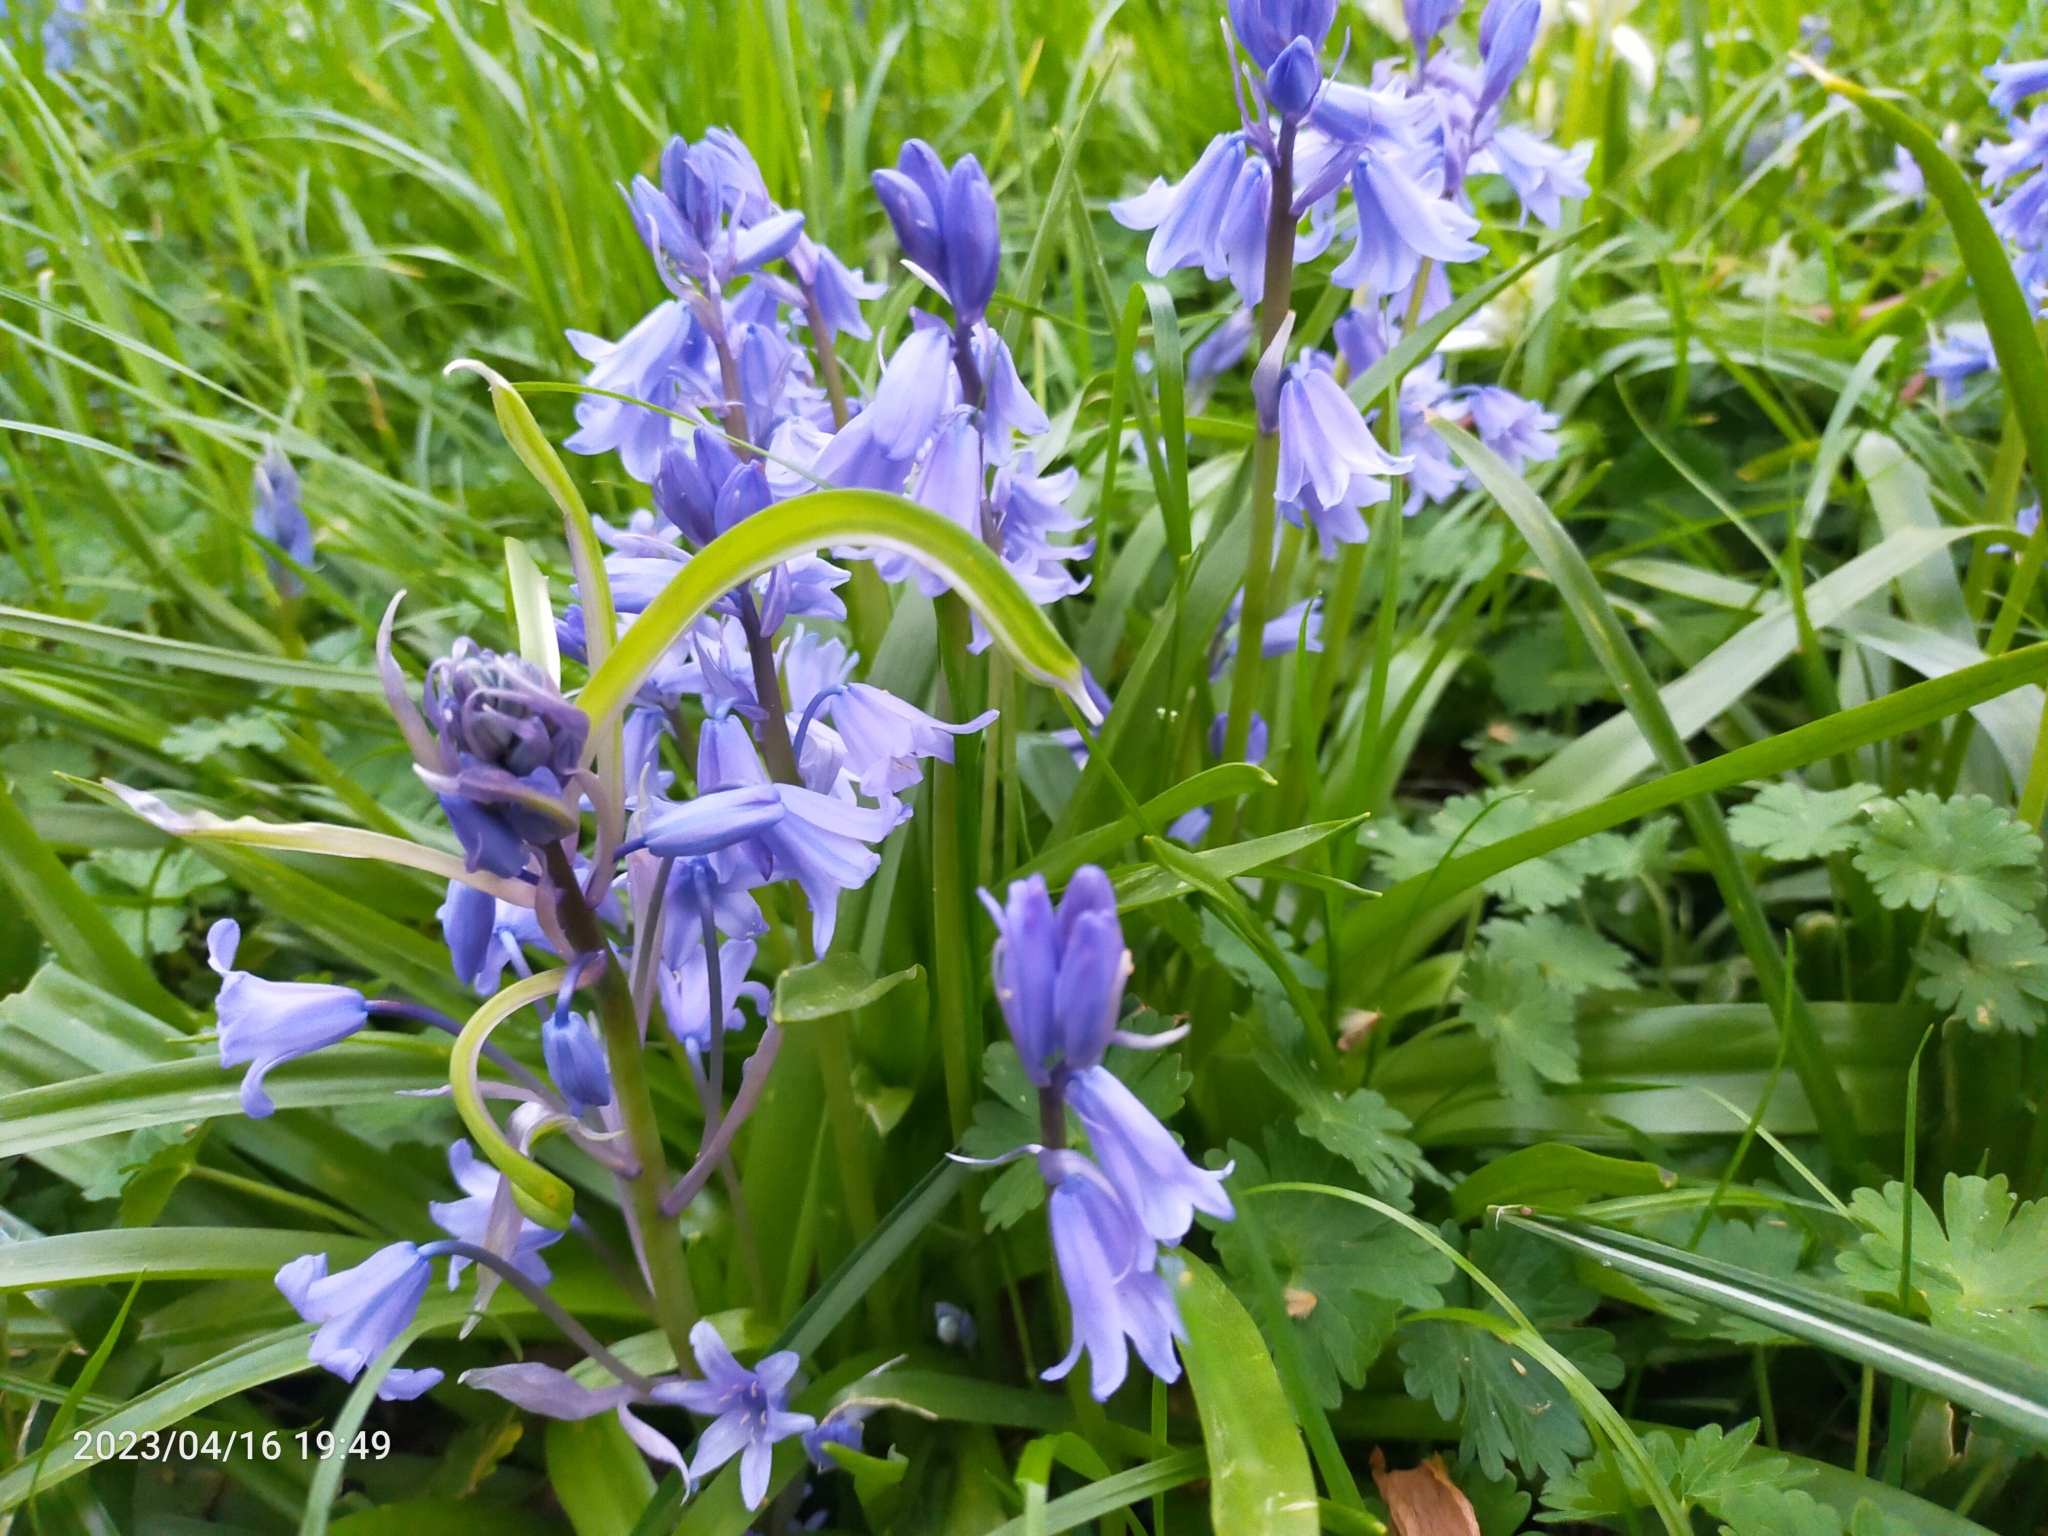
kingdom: Plantae
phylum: Tracheophyta
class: Liliopsida
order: Asparagales
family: Asparagaceae
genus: Hyacinthoides
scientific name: Hyacinthoides hispanica
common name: Spanish bluebell
